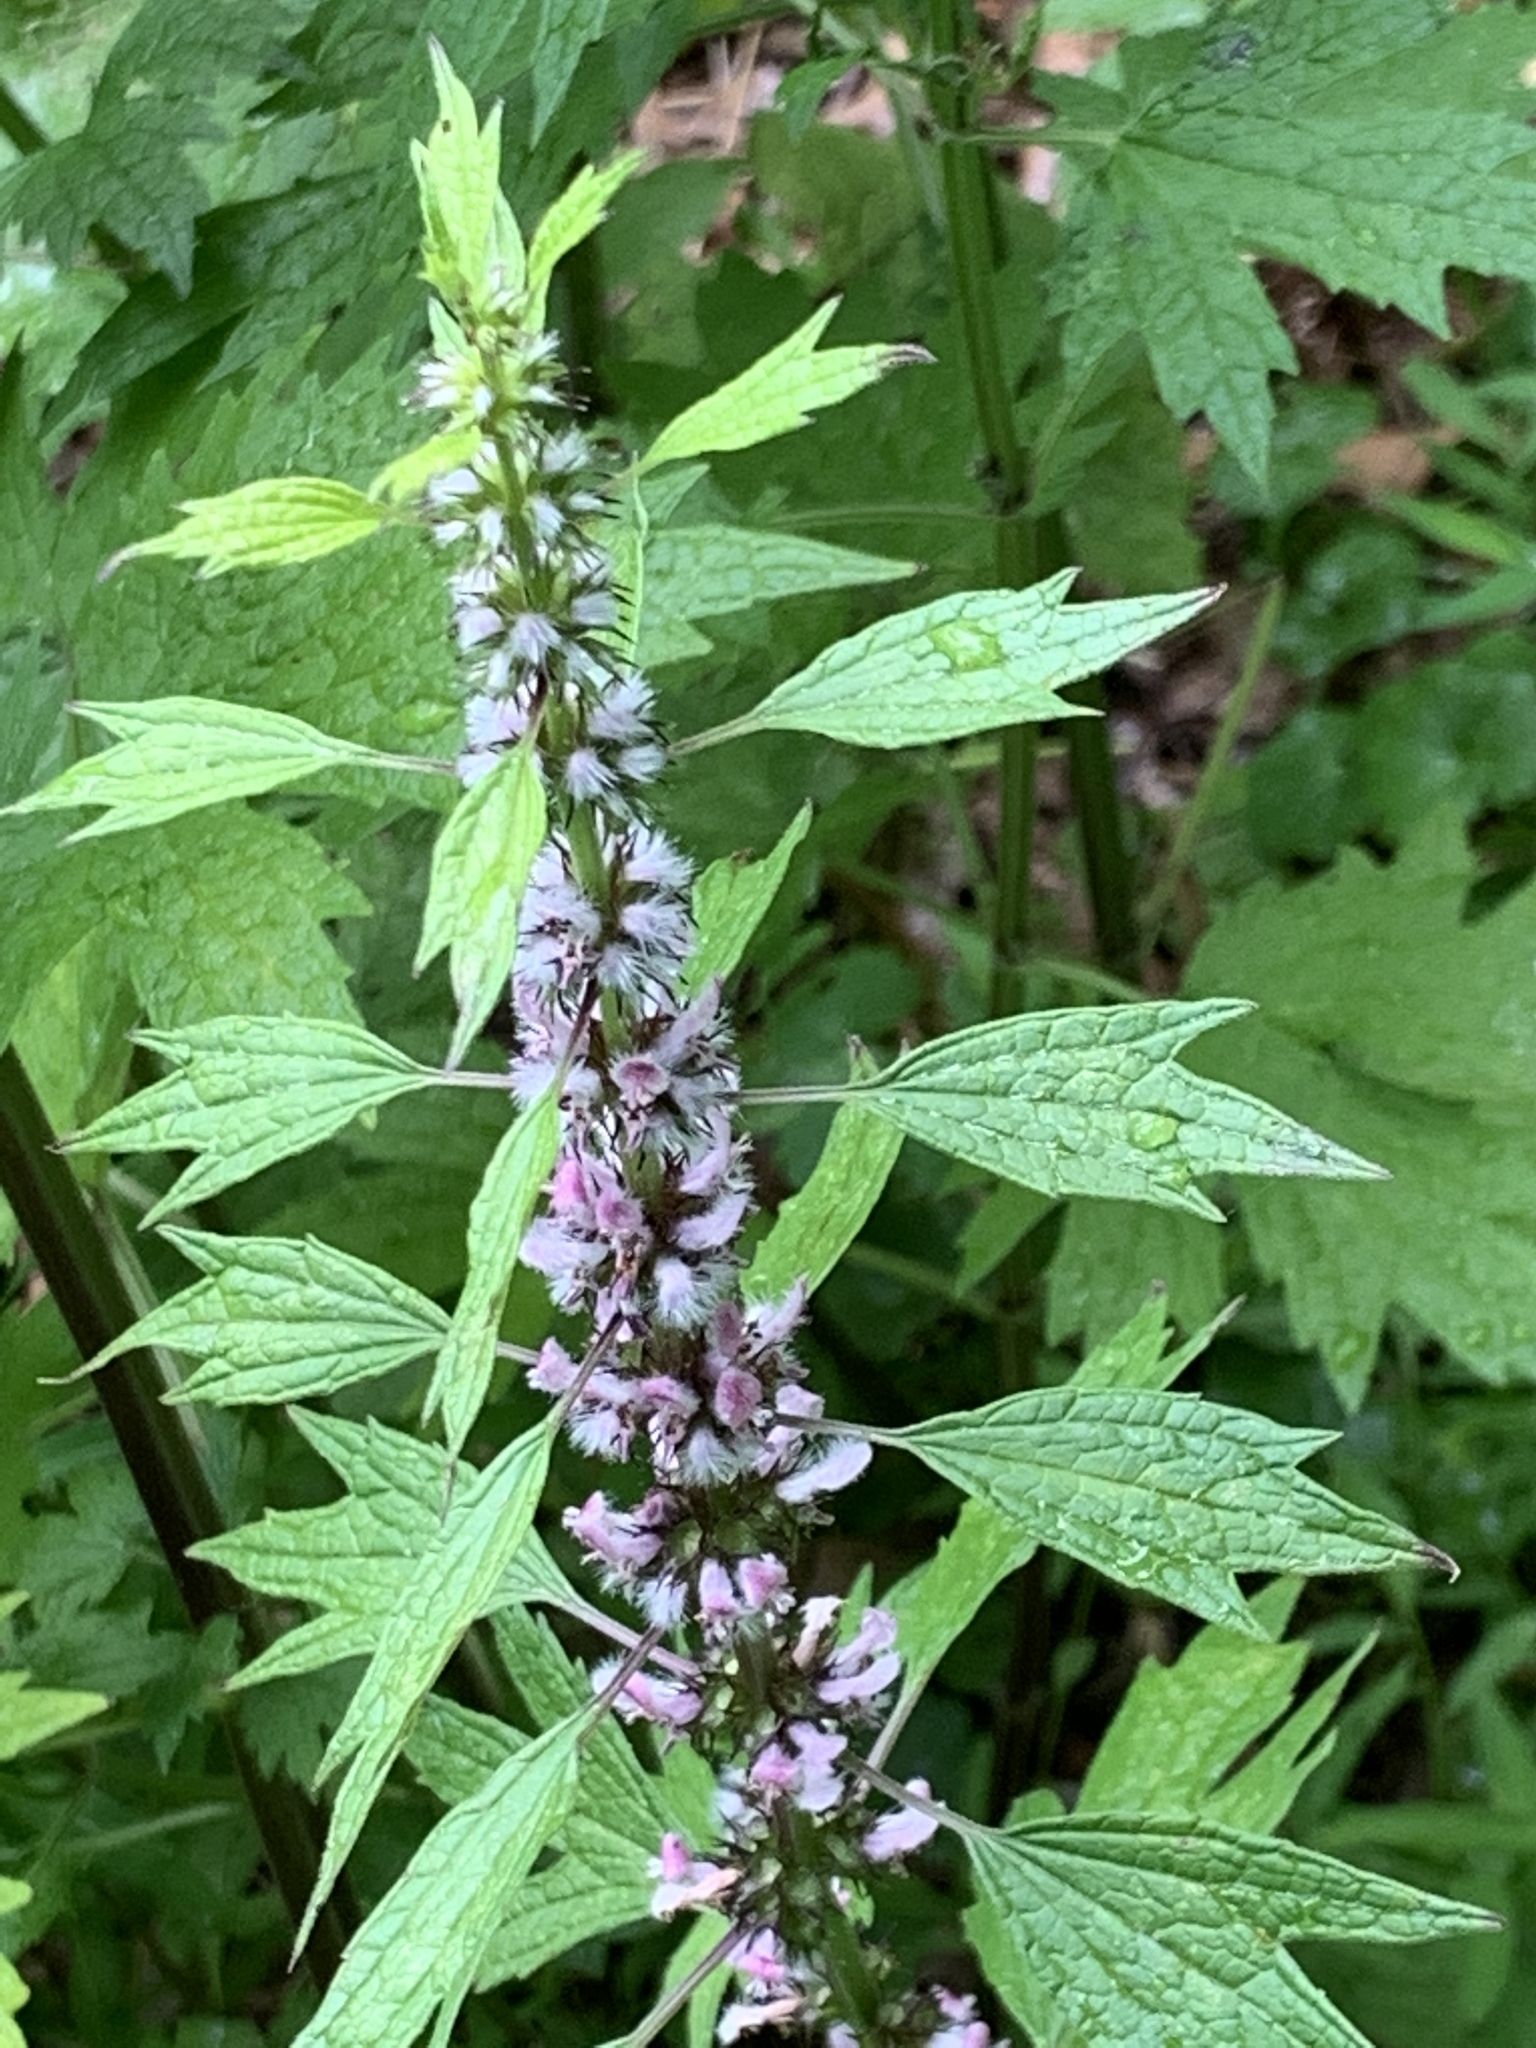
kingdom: Plantae
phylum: Tracheophyta
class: Magnoliopsida
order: Lamiales
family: Lamiaceae
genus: Leonurus
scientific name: Leonurus cardiaca
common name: Motherwort
